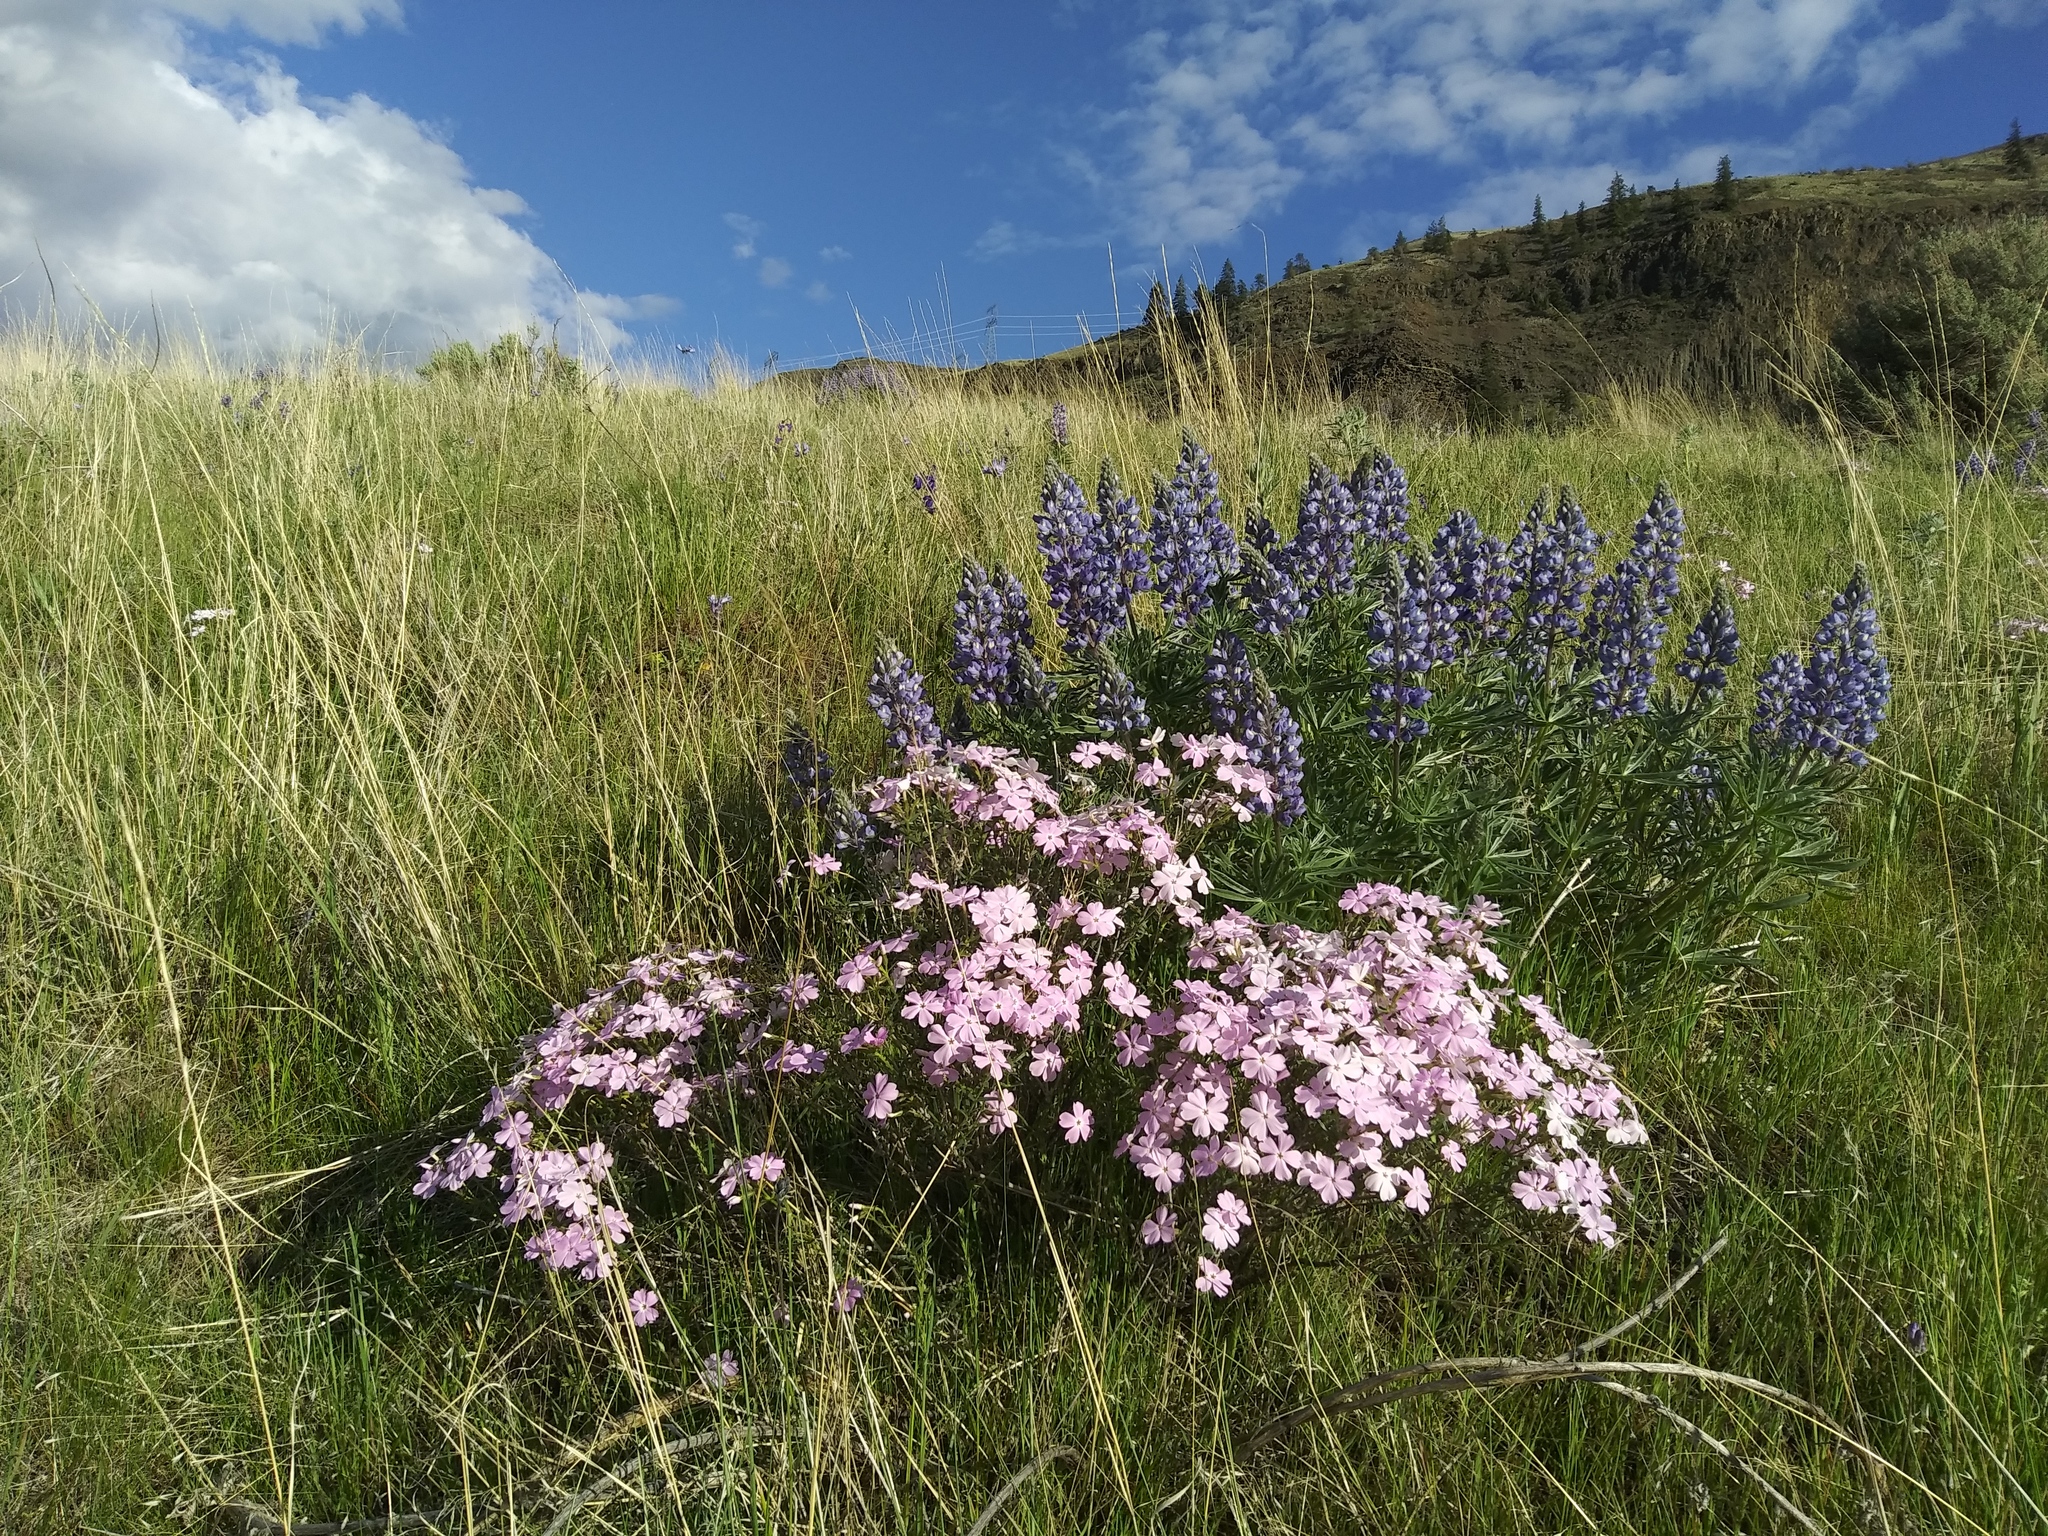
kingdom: Plantae
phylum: Tracheophyta
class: Magnoliopsida
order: Ericales
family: Polemoniaceae
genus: Phlox
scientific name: Phlox speciosa
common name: Bush phlox
